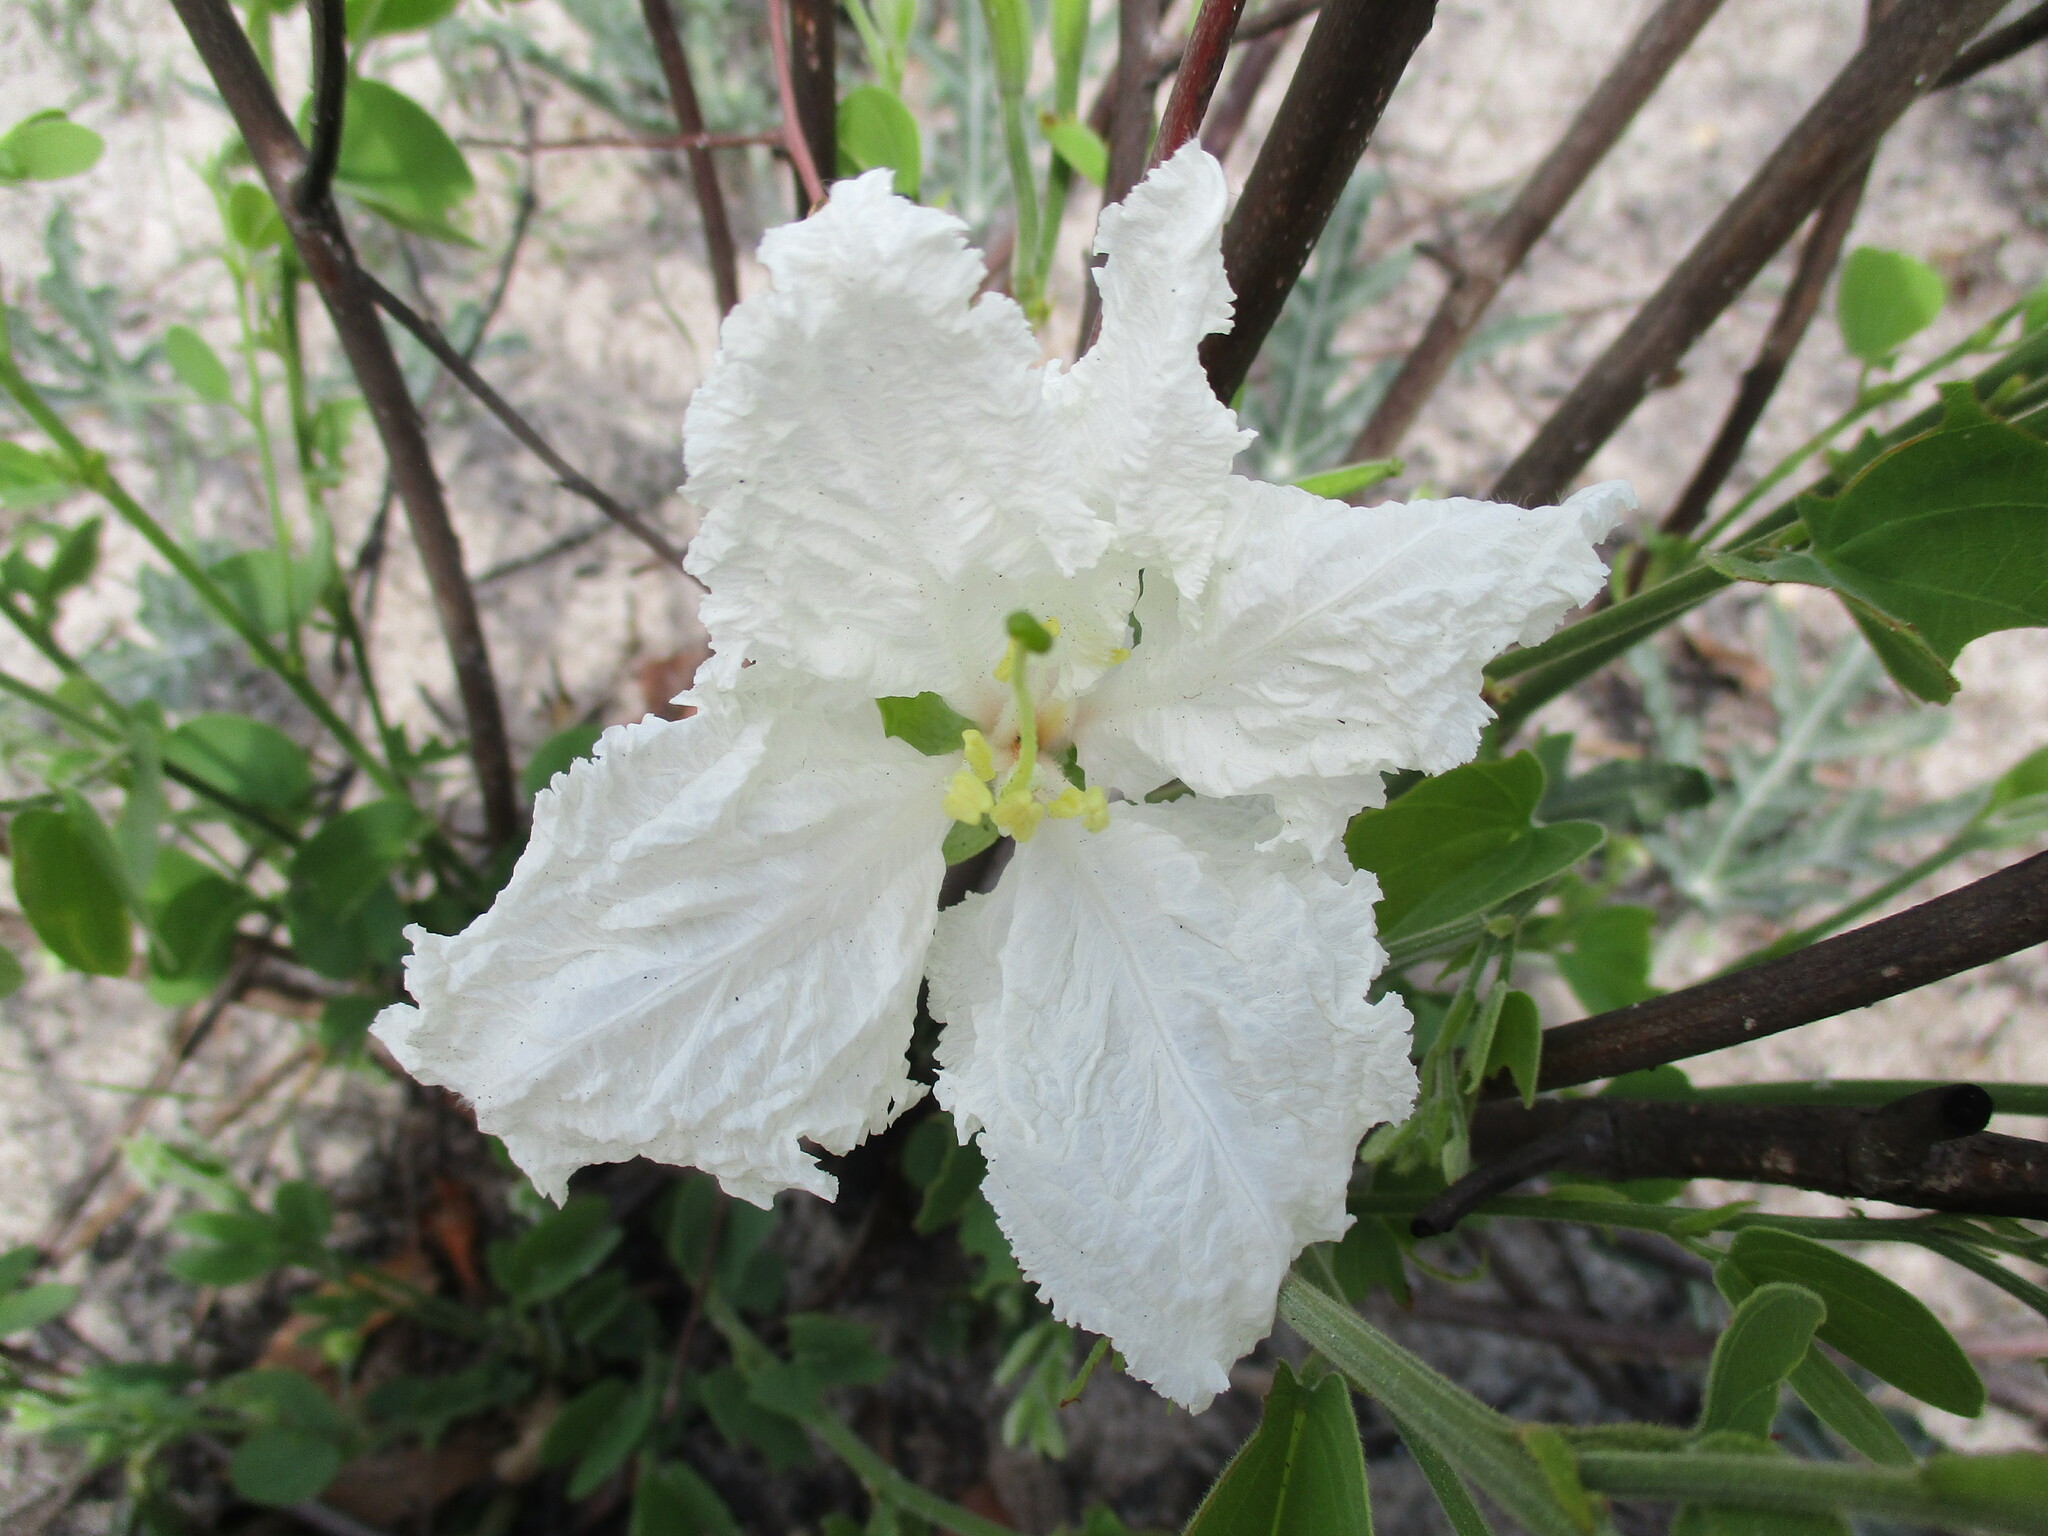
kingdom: Plantae
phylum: Tracheophyta
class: Magnoliopsida
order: Fabales
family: Fabaceae
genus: Bauhinia
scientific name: Bauhinia macrantha
